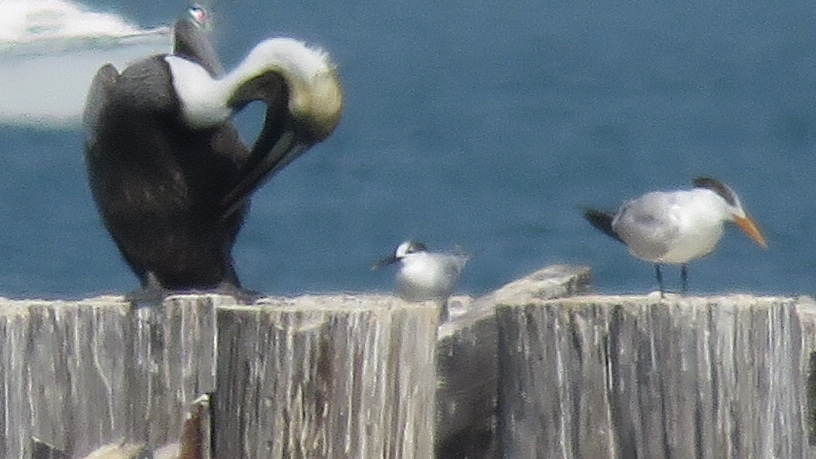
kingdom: Animalia
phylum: Chordata
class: Aves
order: Charadriiformes
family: Laridae
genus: Thalasseus
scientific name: Thalasseus sandvicensis
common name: Sandwich tern
